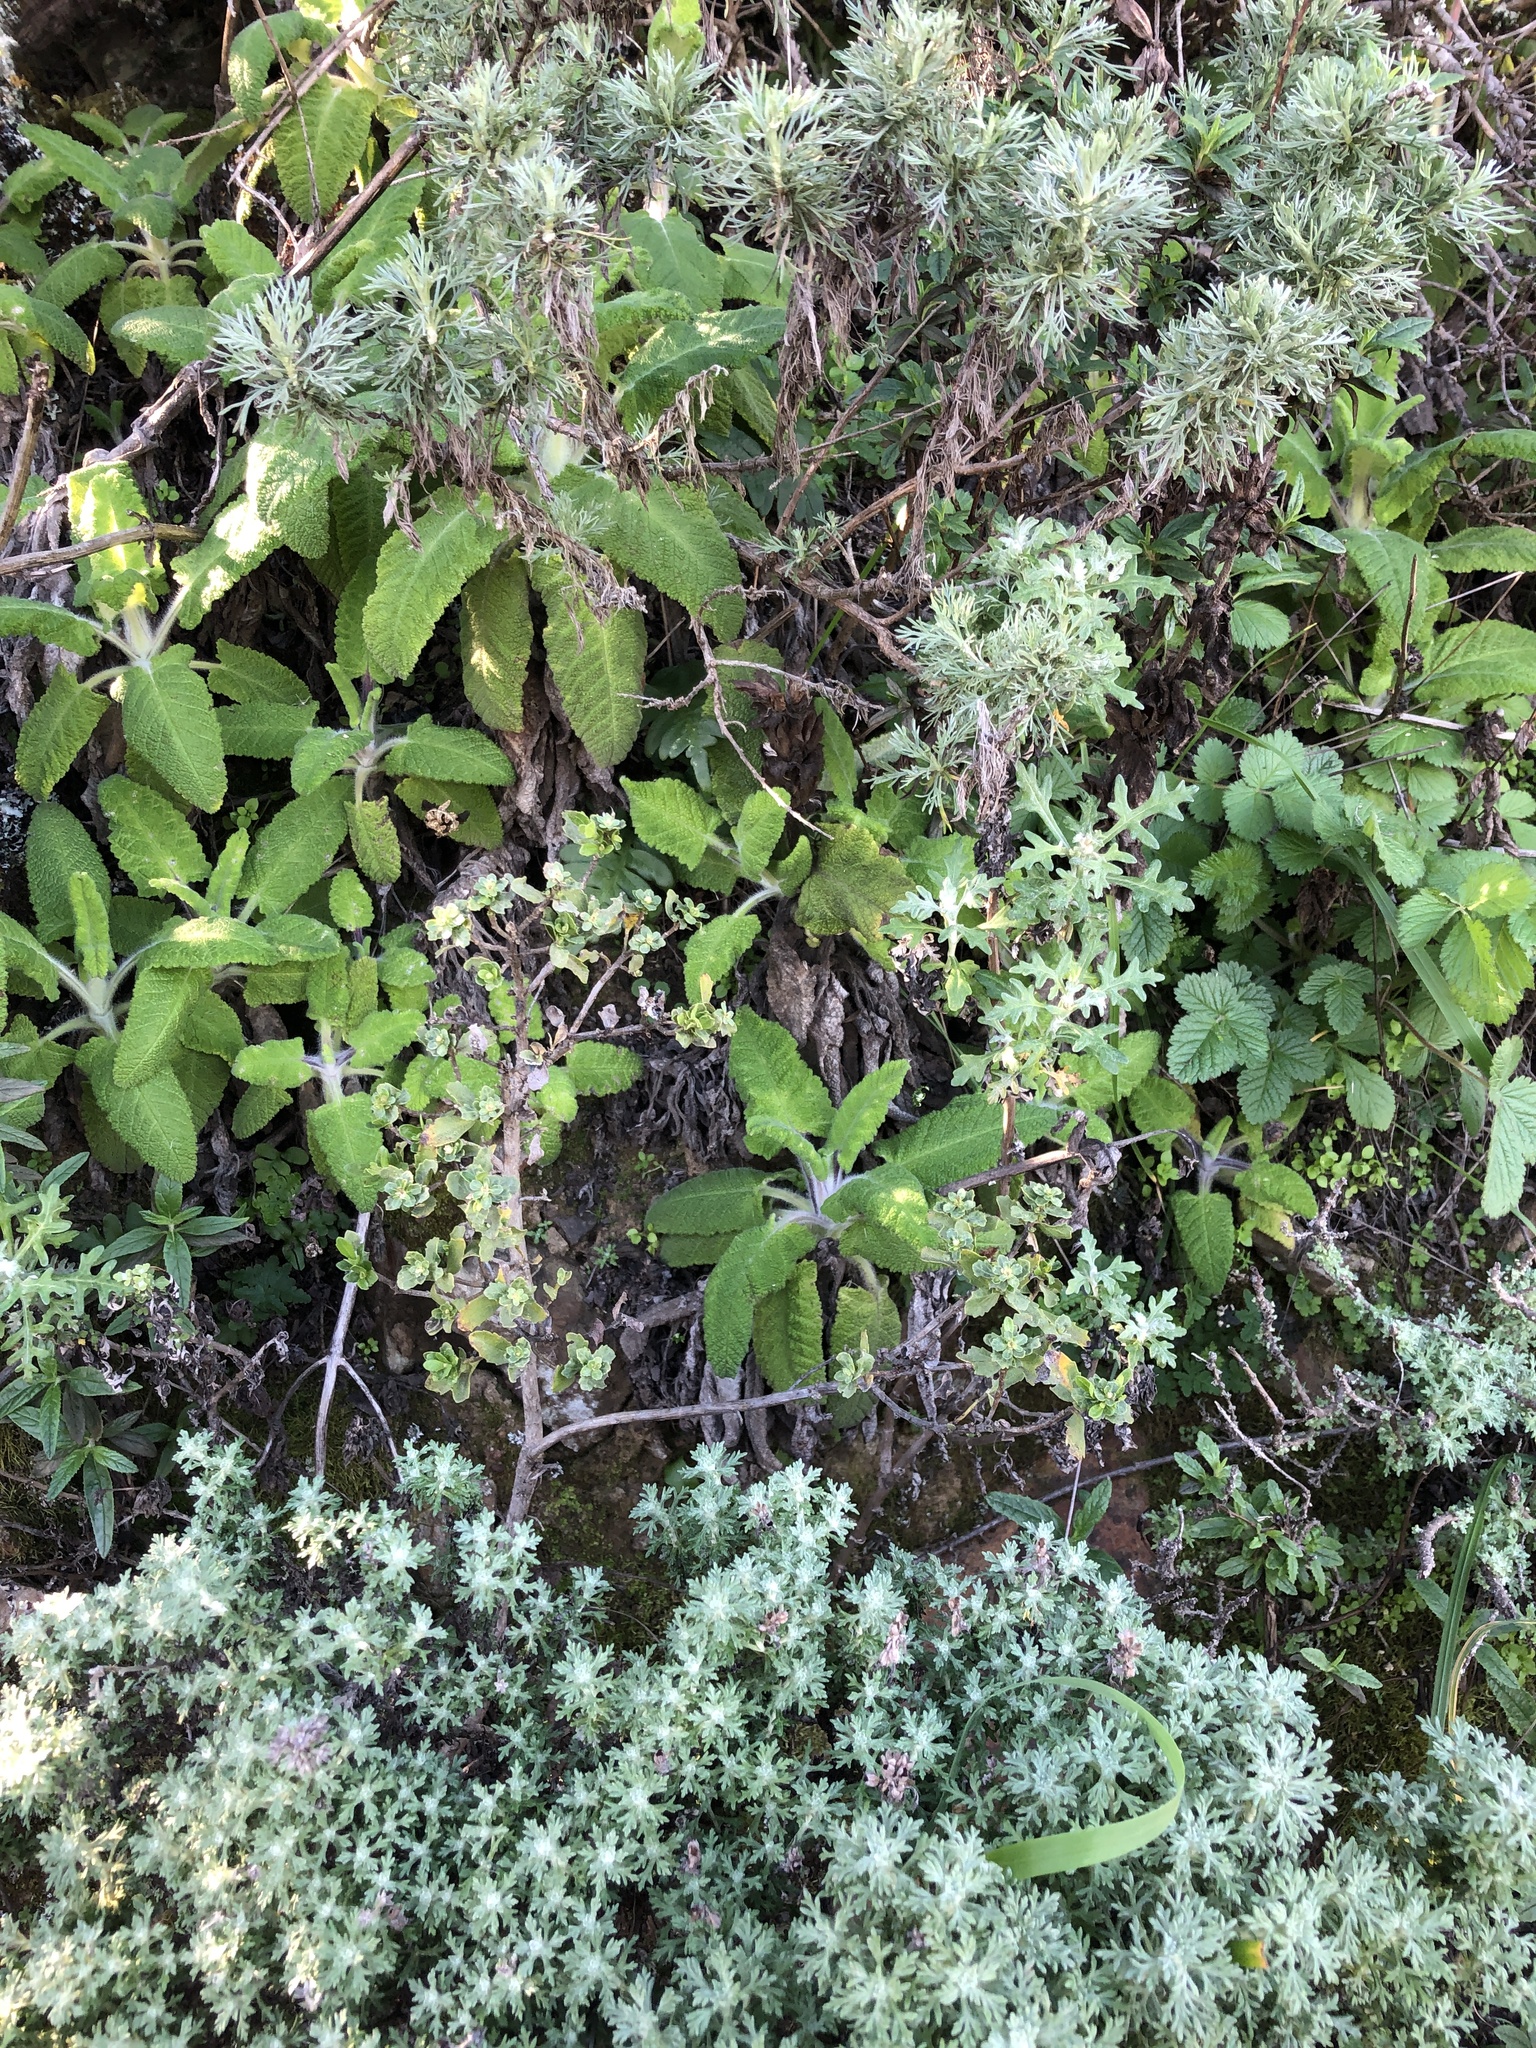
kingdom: Plantae
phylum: Tracheophyta
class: Magnoliopsida
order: Asterales
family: Asteraceae
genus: Artemisia
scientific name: Artemisia californica
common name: California sagebrush
